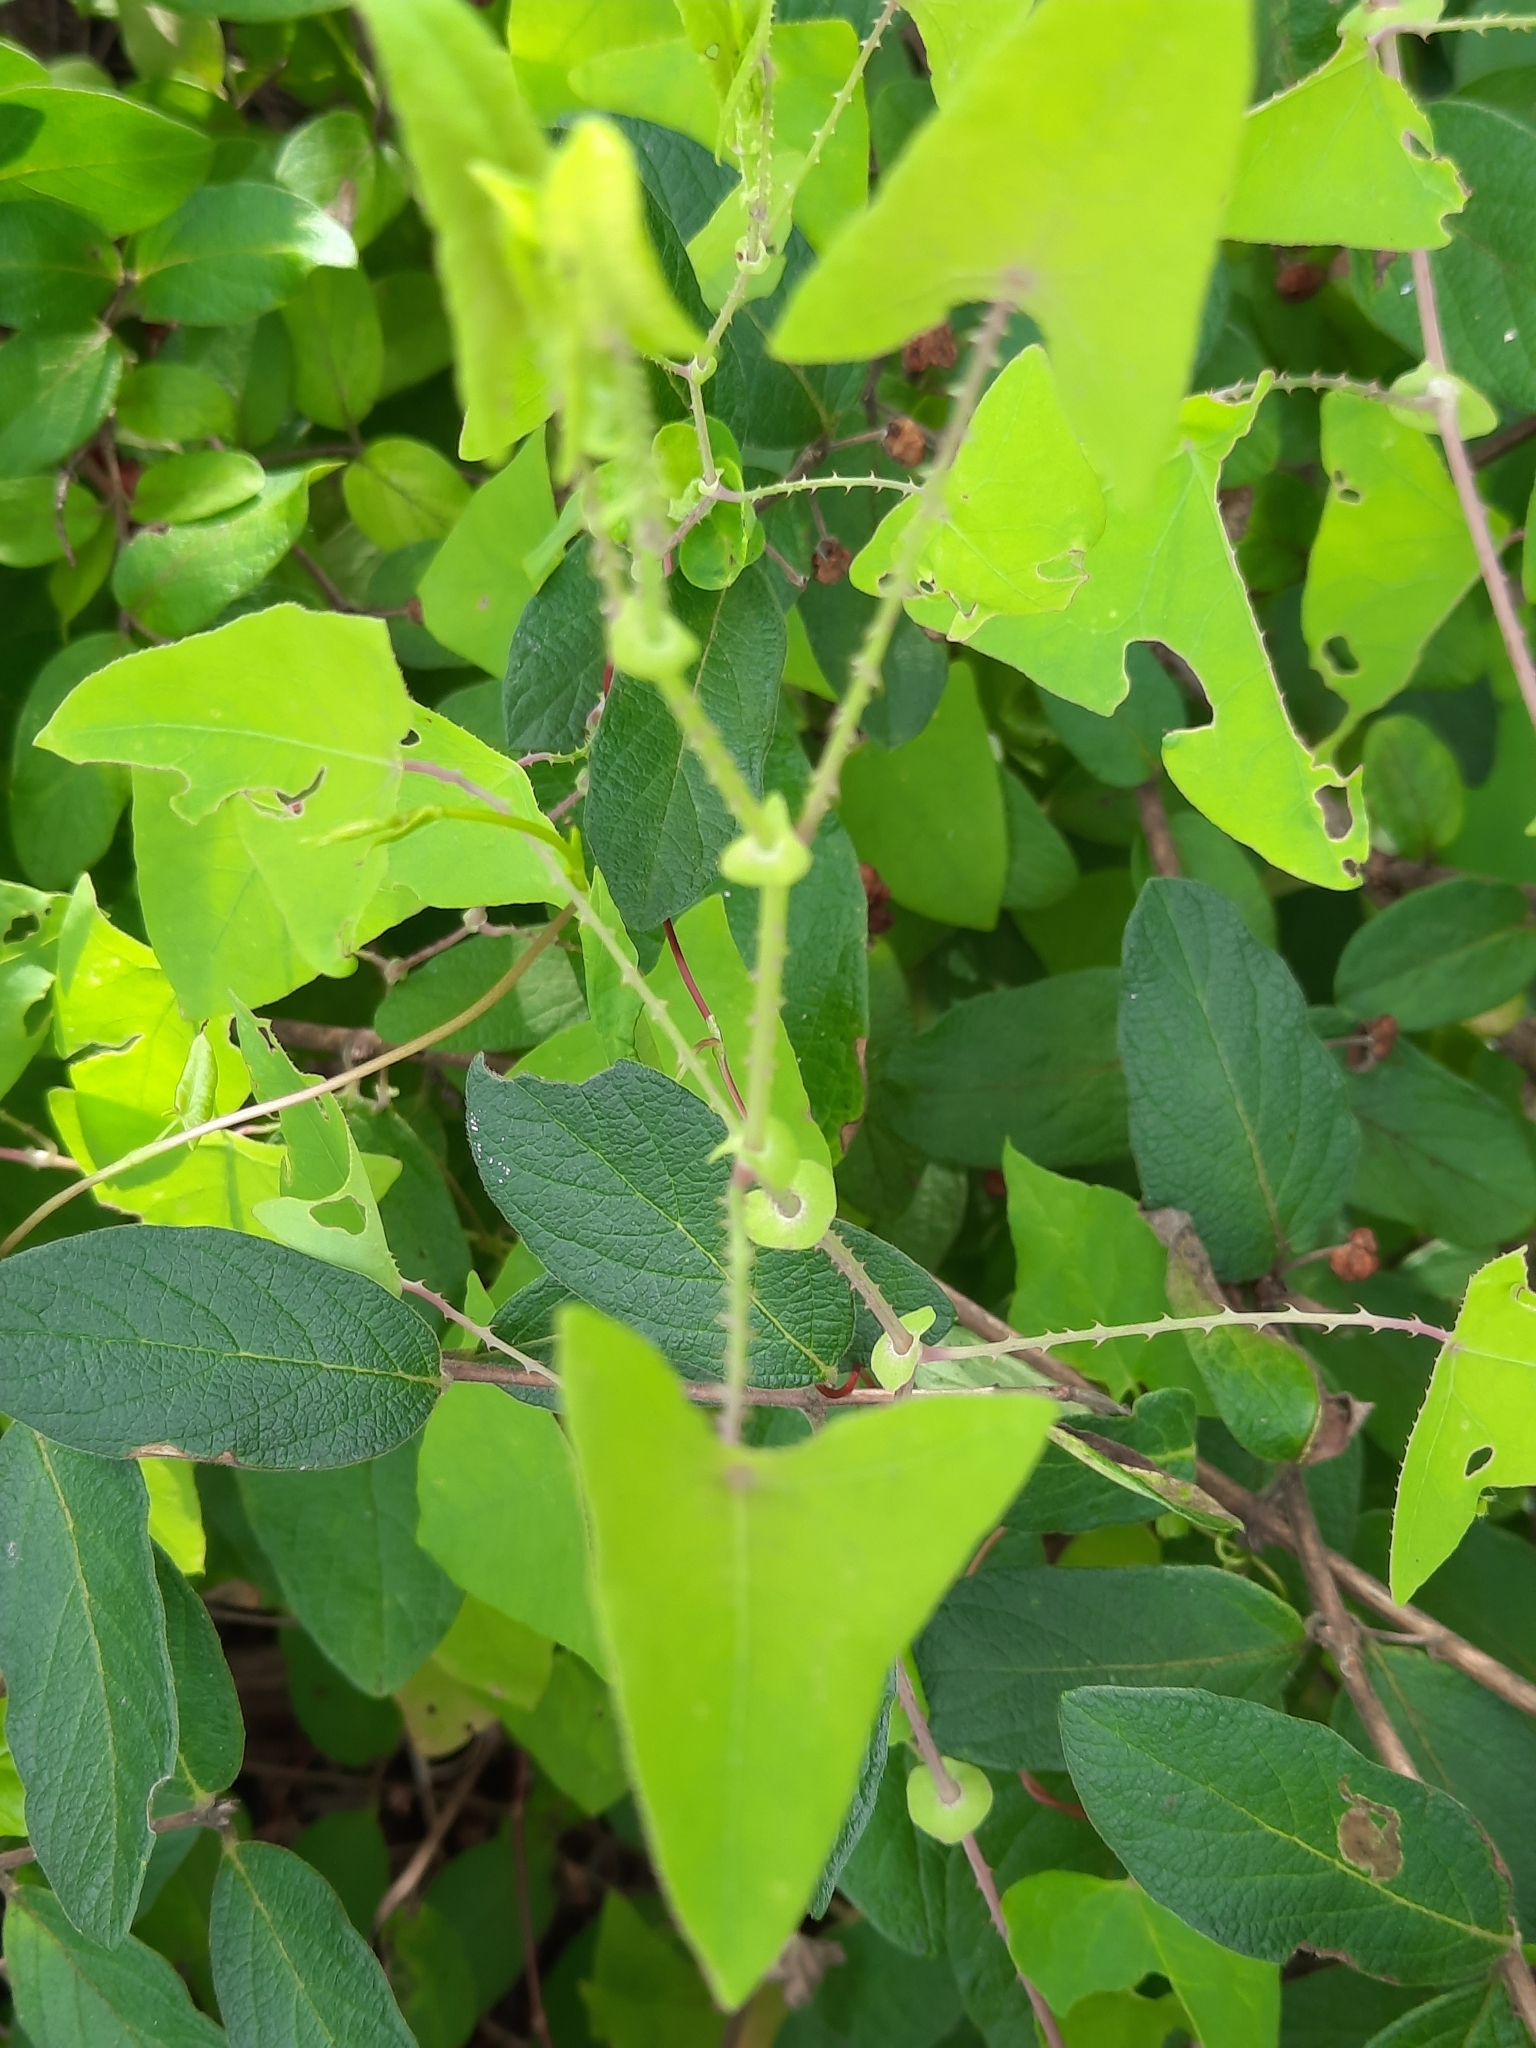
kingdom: Plantae
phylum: Tracheophyta
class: Magnoliopsida
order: Caryophyllales
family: Polygonaceae
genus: Persicaria
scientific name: Persicaria perfoliata
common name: Asiatic tearthumb
